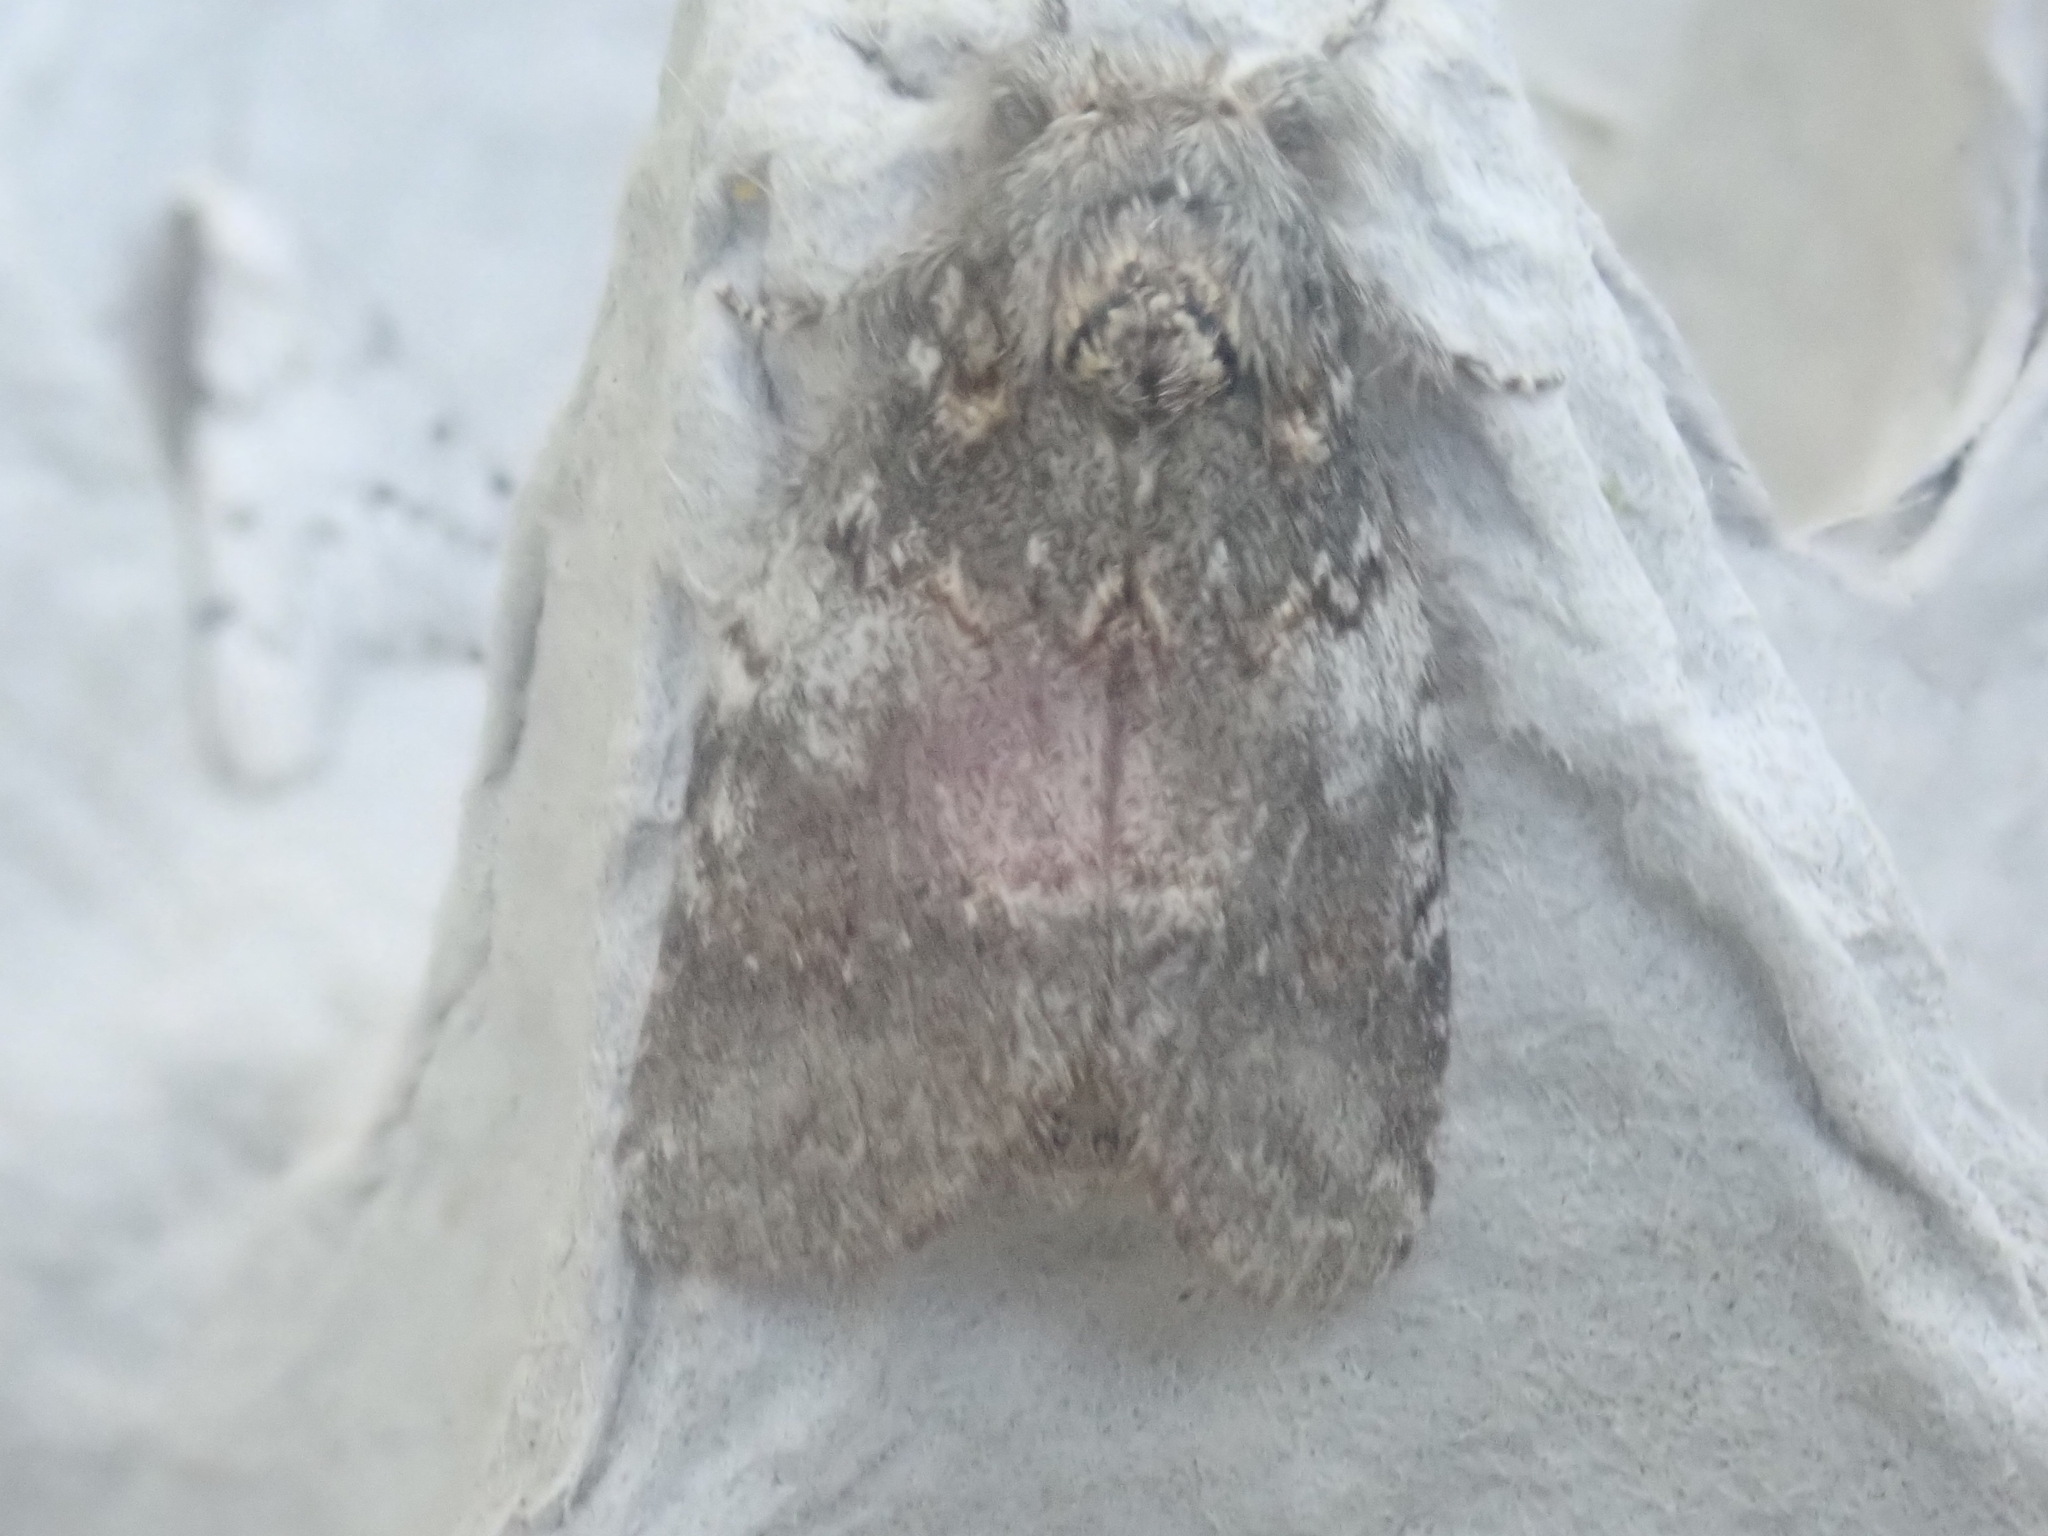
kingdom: Animalia
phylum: Arthropoda
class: Insecta
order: Lepidoptera
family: Notodontidae
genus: Peridea
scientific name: Peridea angulosa
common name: Angulose prominent
